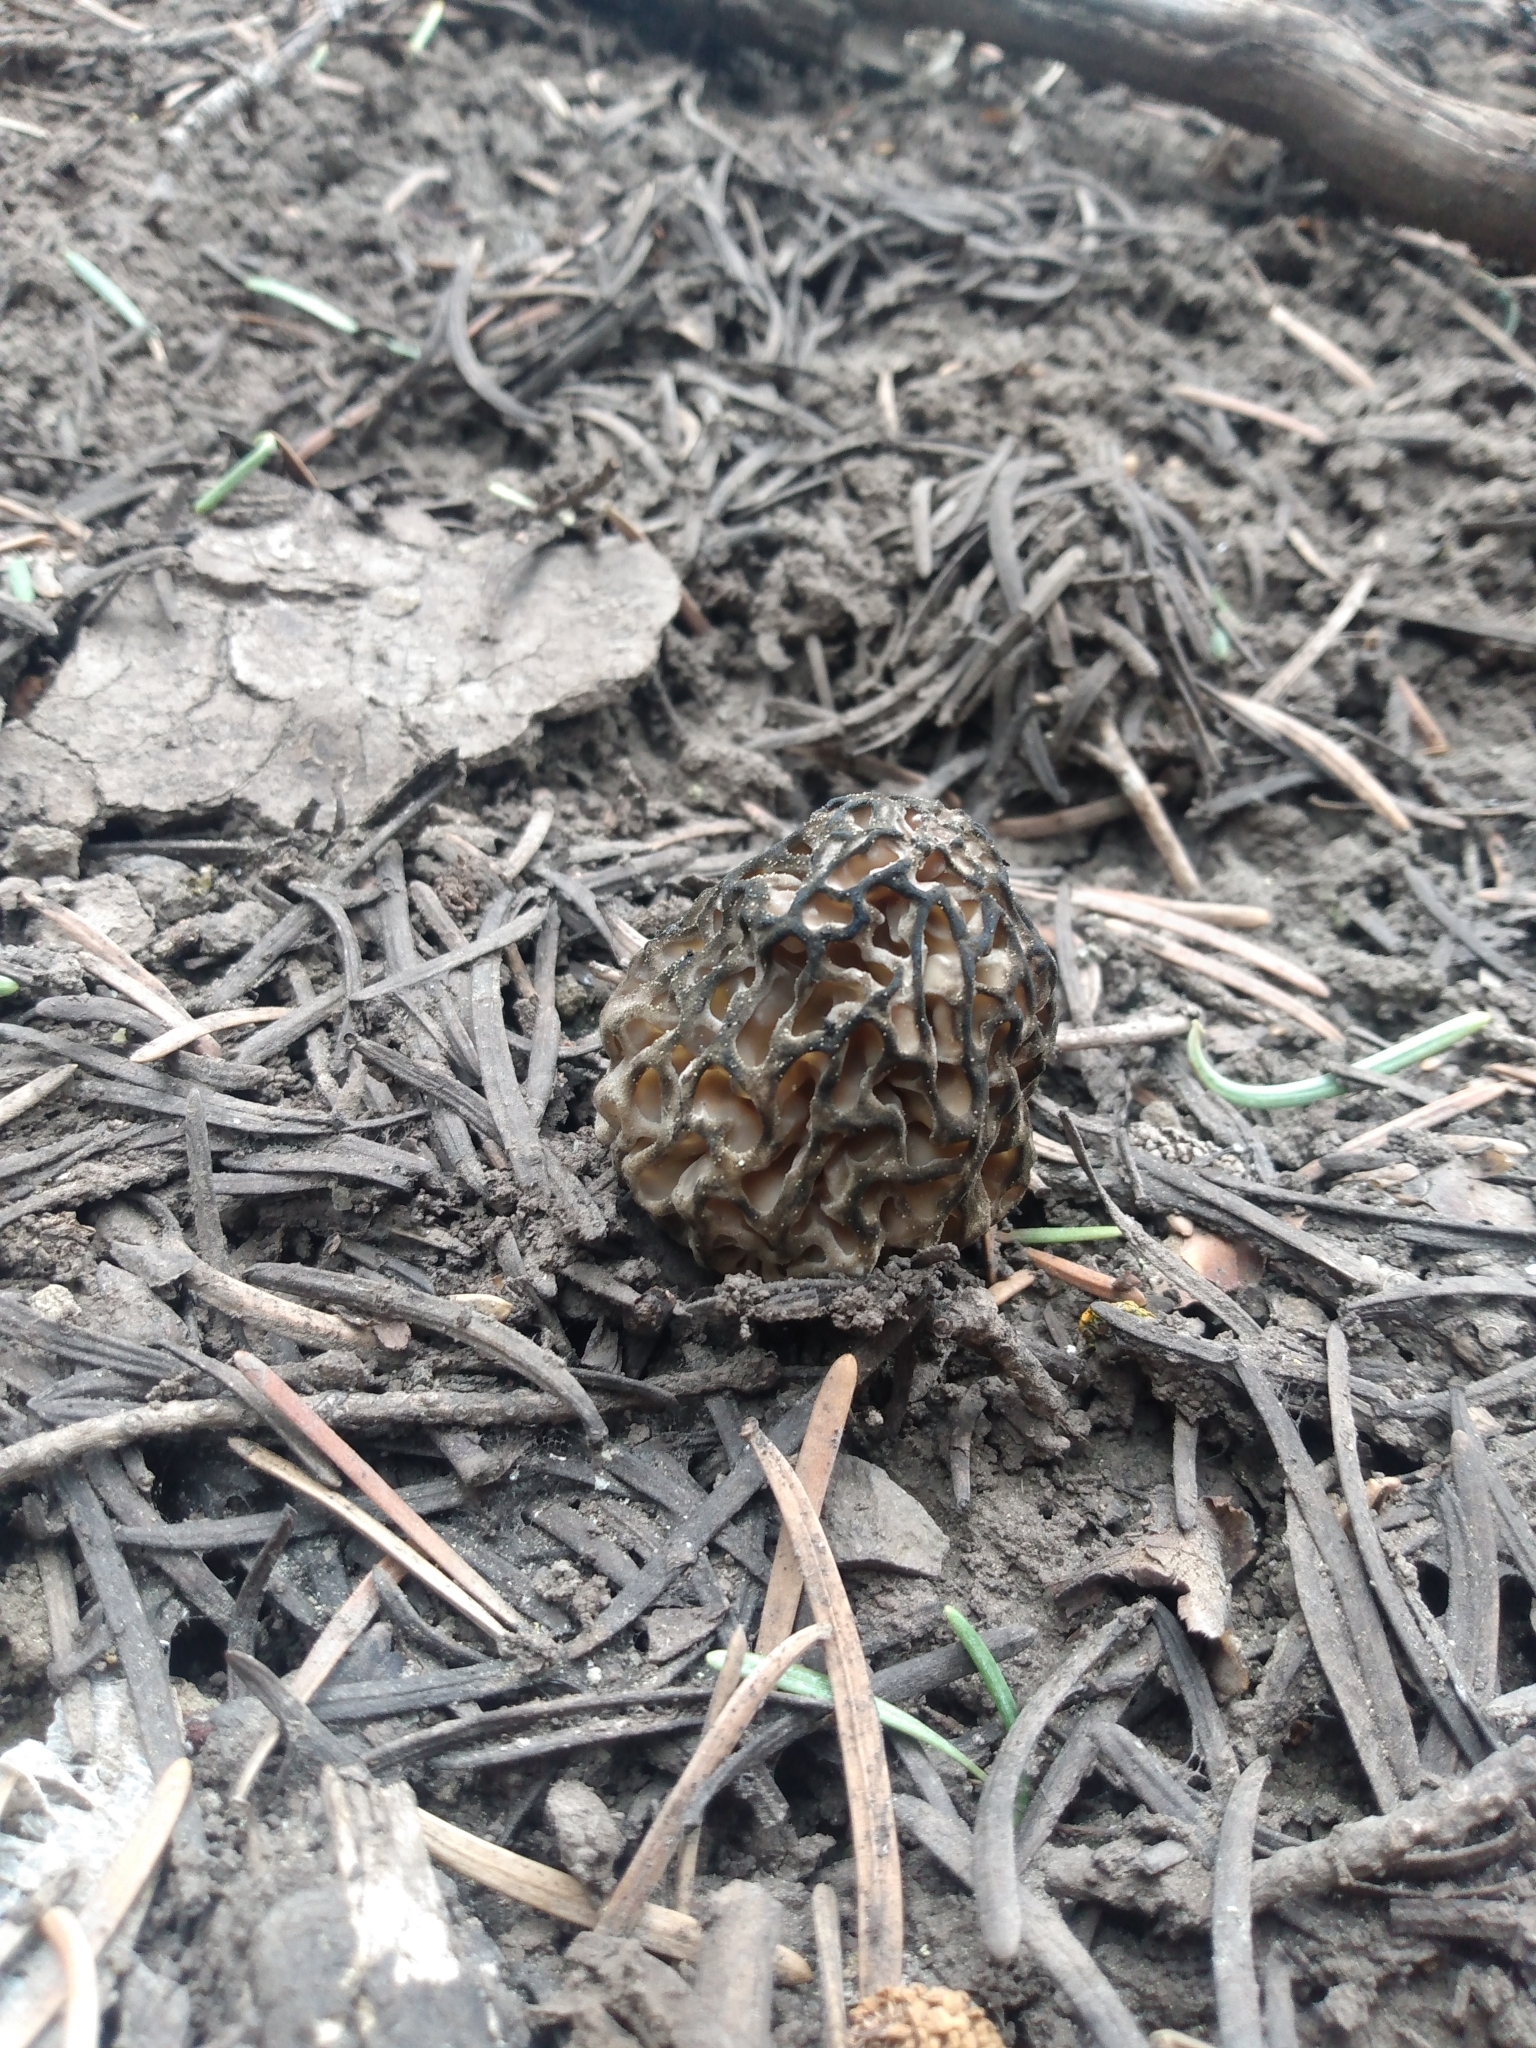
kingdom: Fungi
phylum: Ascomycota
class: Pezizomycetes
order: Pezizales
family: Morchellaceae
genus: Morchella
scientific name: Morchella snyderi
